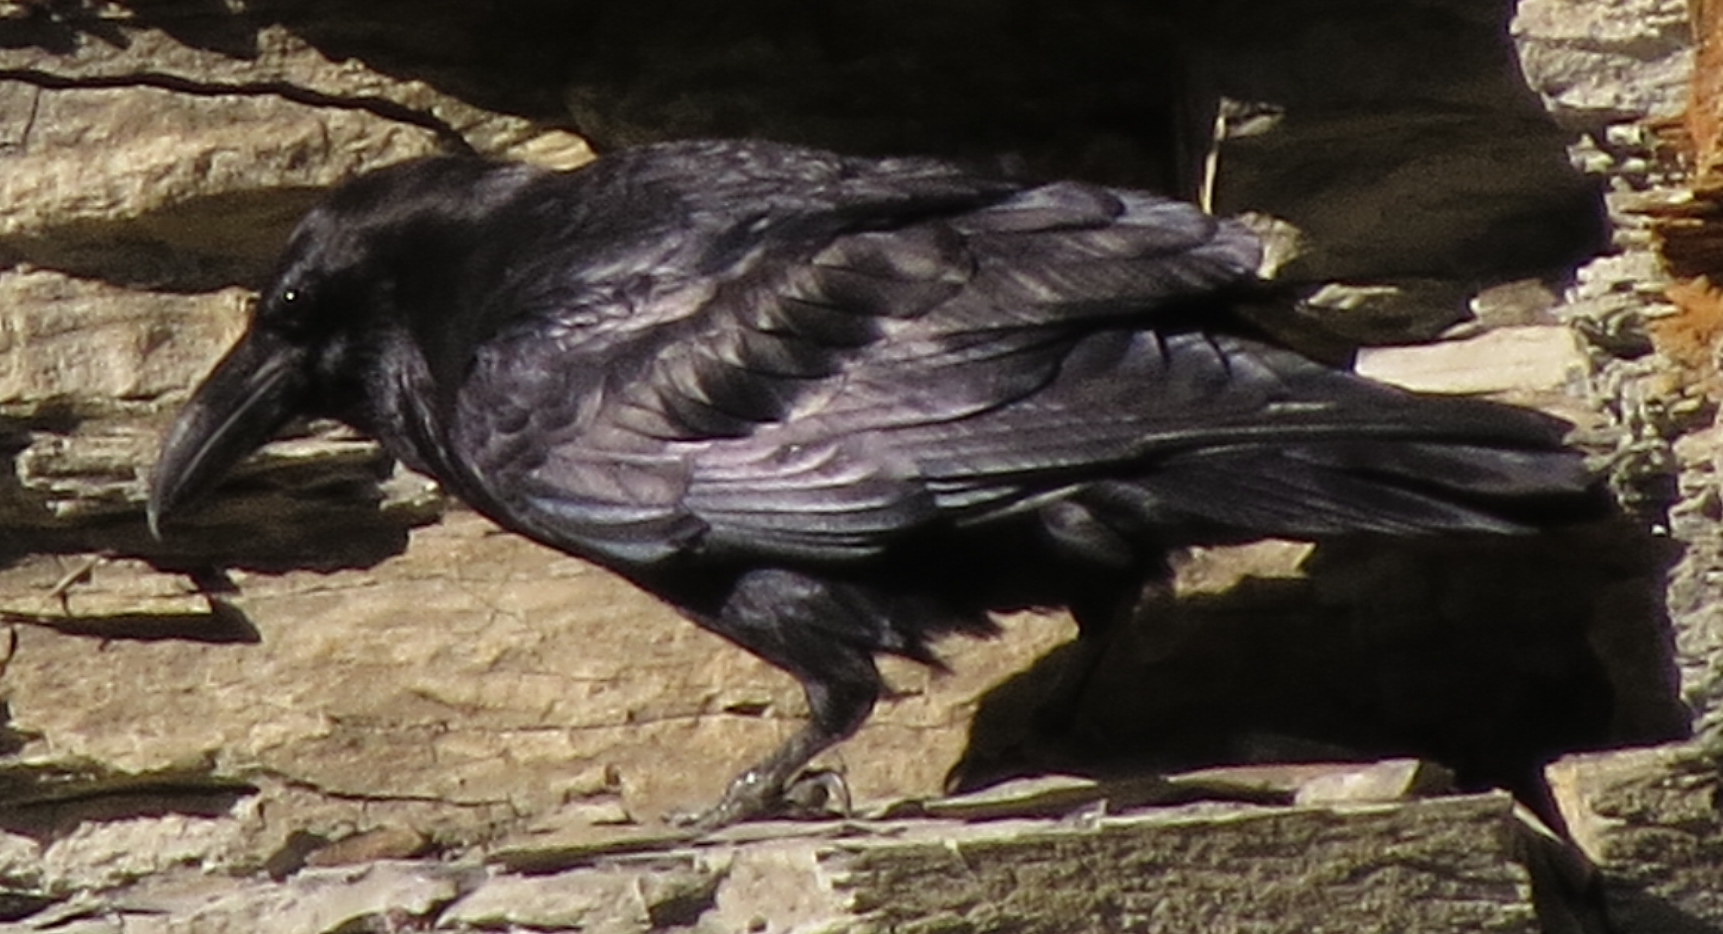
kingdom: Animalia
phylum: Chordata
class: Aves
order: Passeriformes
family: Corvidae
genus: Corvus
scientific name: Corvus corax
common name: Common raven
